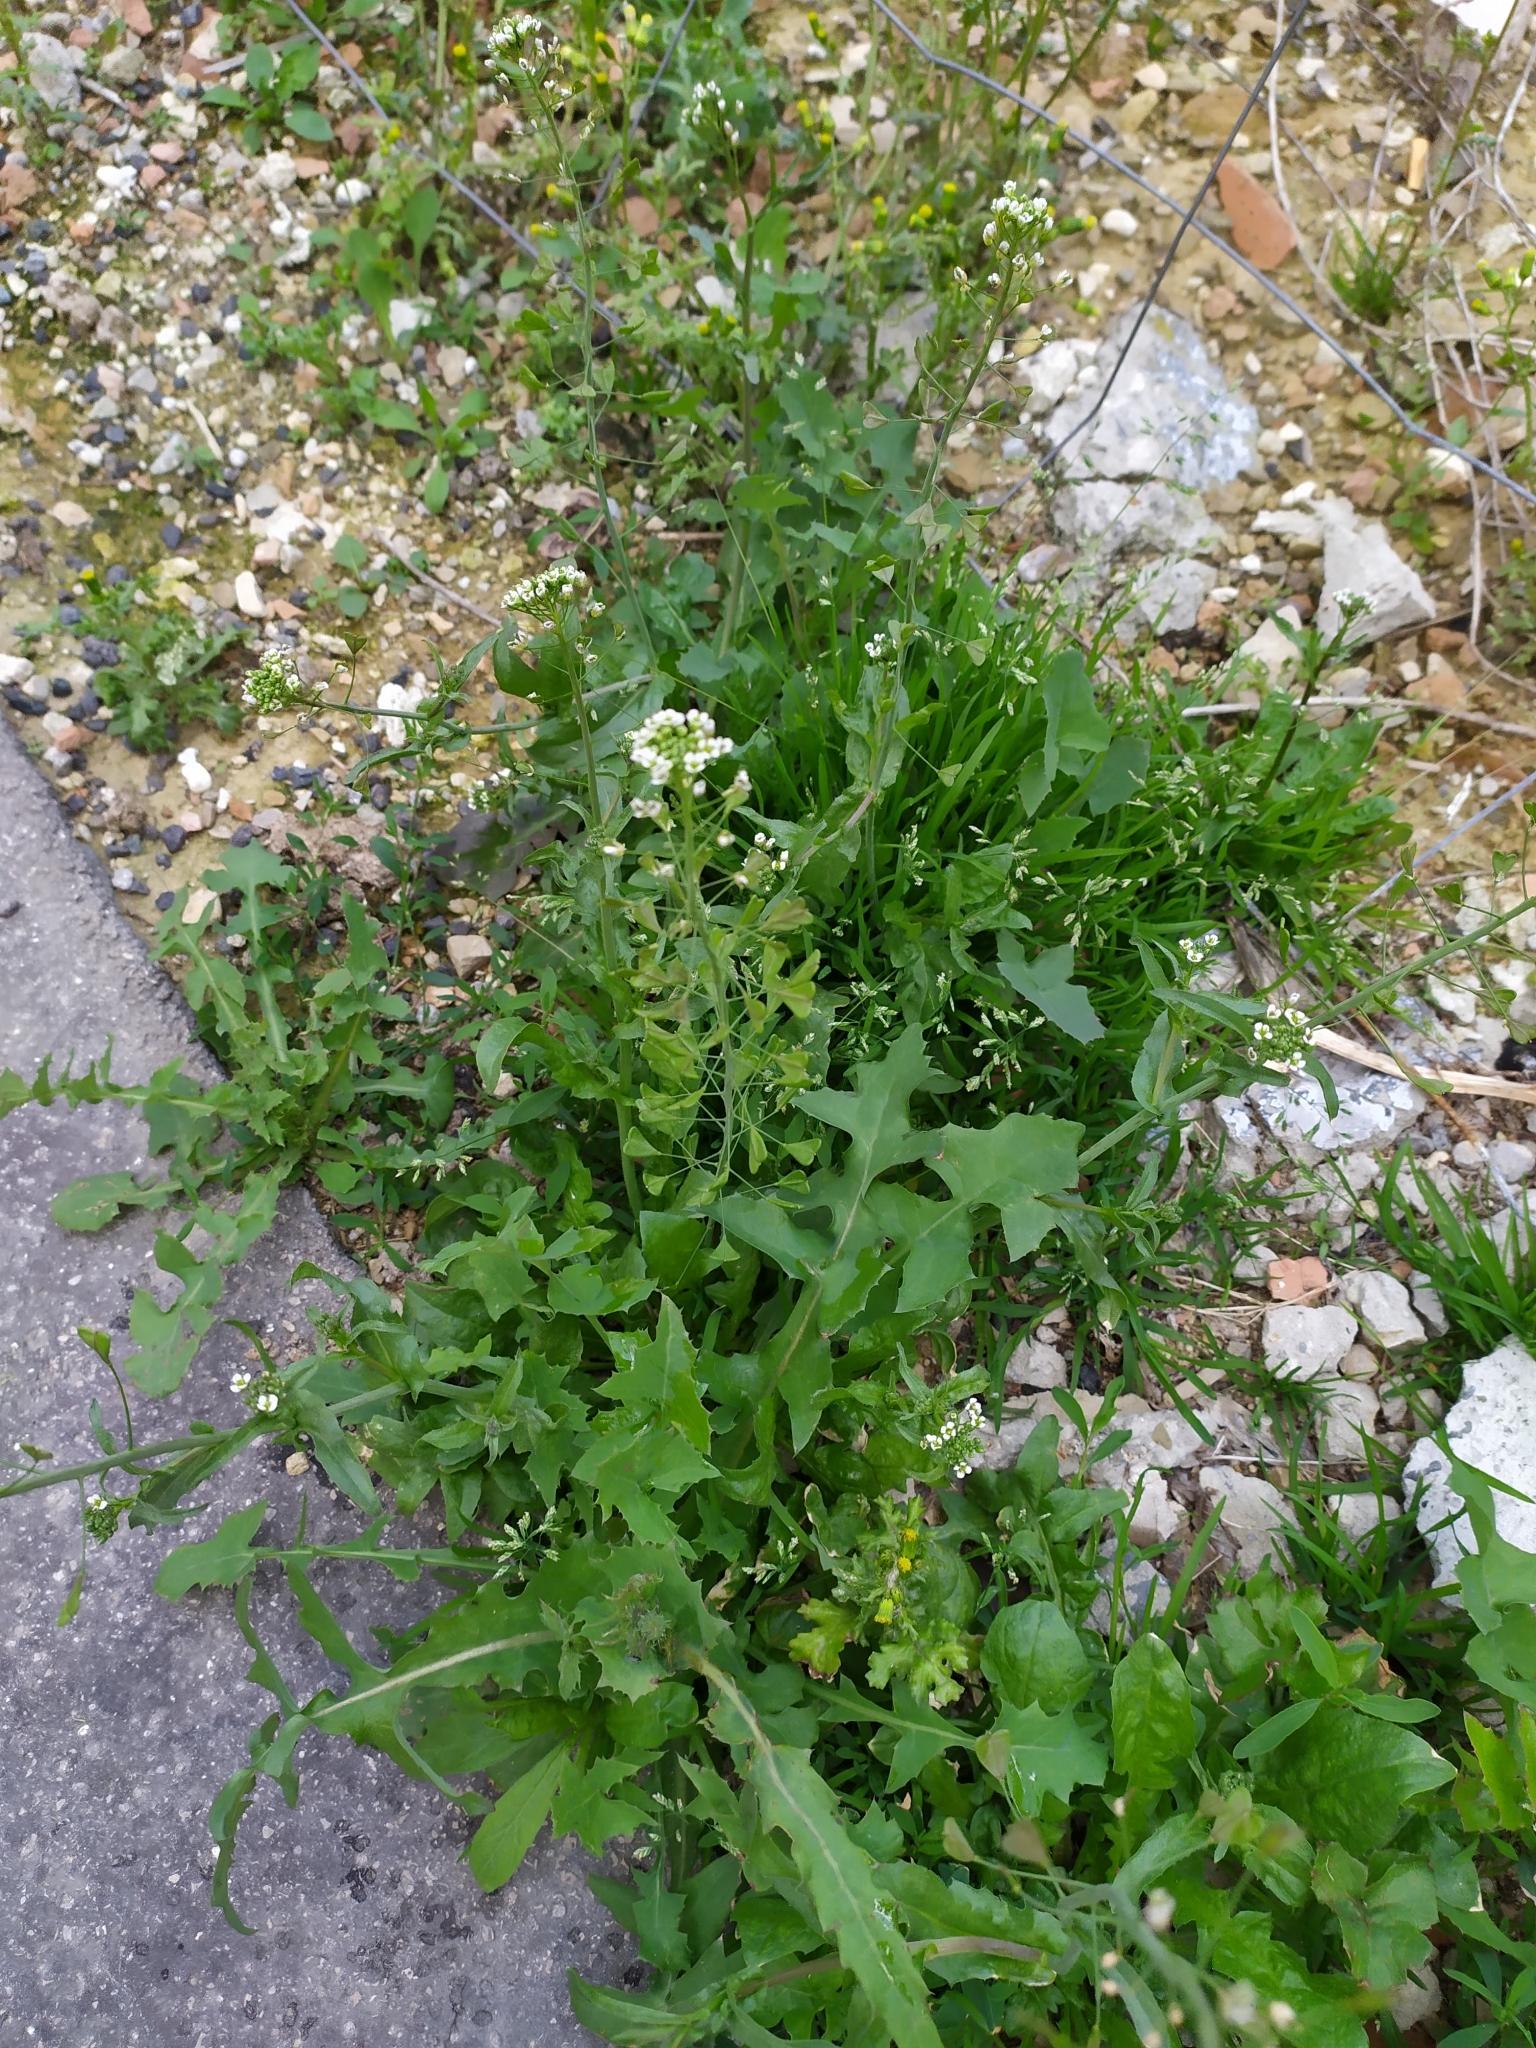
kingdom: Plantae
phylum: Tracheophyta
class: Magnoliopsida
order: Brassicales
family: Brassicaceae
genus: Capsella
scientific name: Capsella bursa-pastoris
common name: Shepherd's purse
